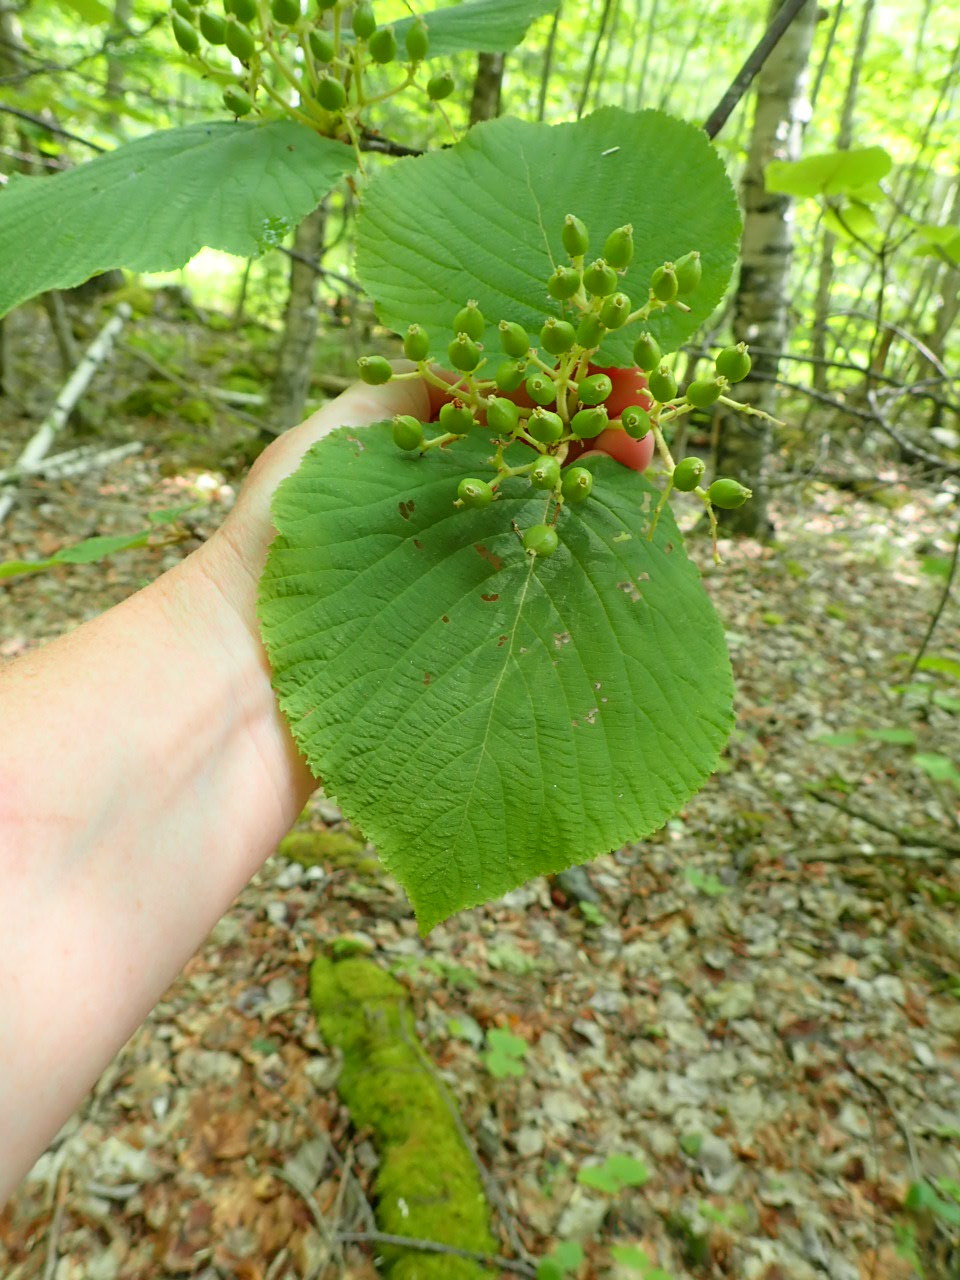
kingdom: Plantae
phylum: Tracheophyta
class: Magnoliopsida
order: Dipsacales
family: Viburnaceae
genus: Viburnum
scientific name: Viburnum lantanoides
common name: Hobblebush
